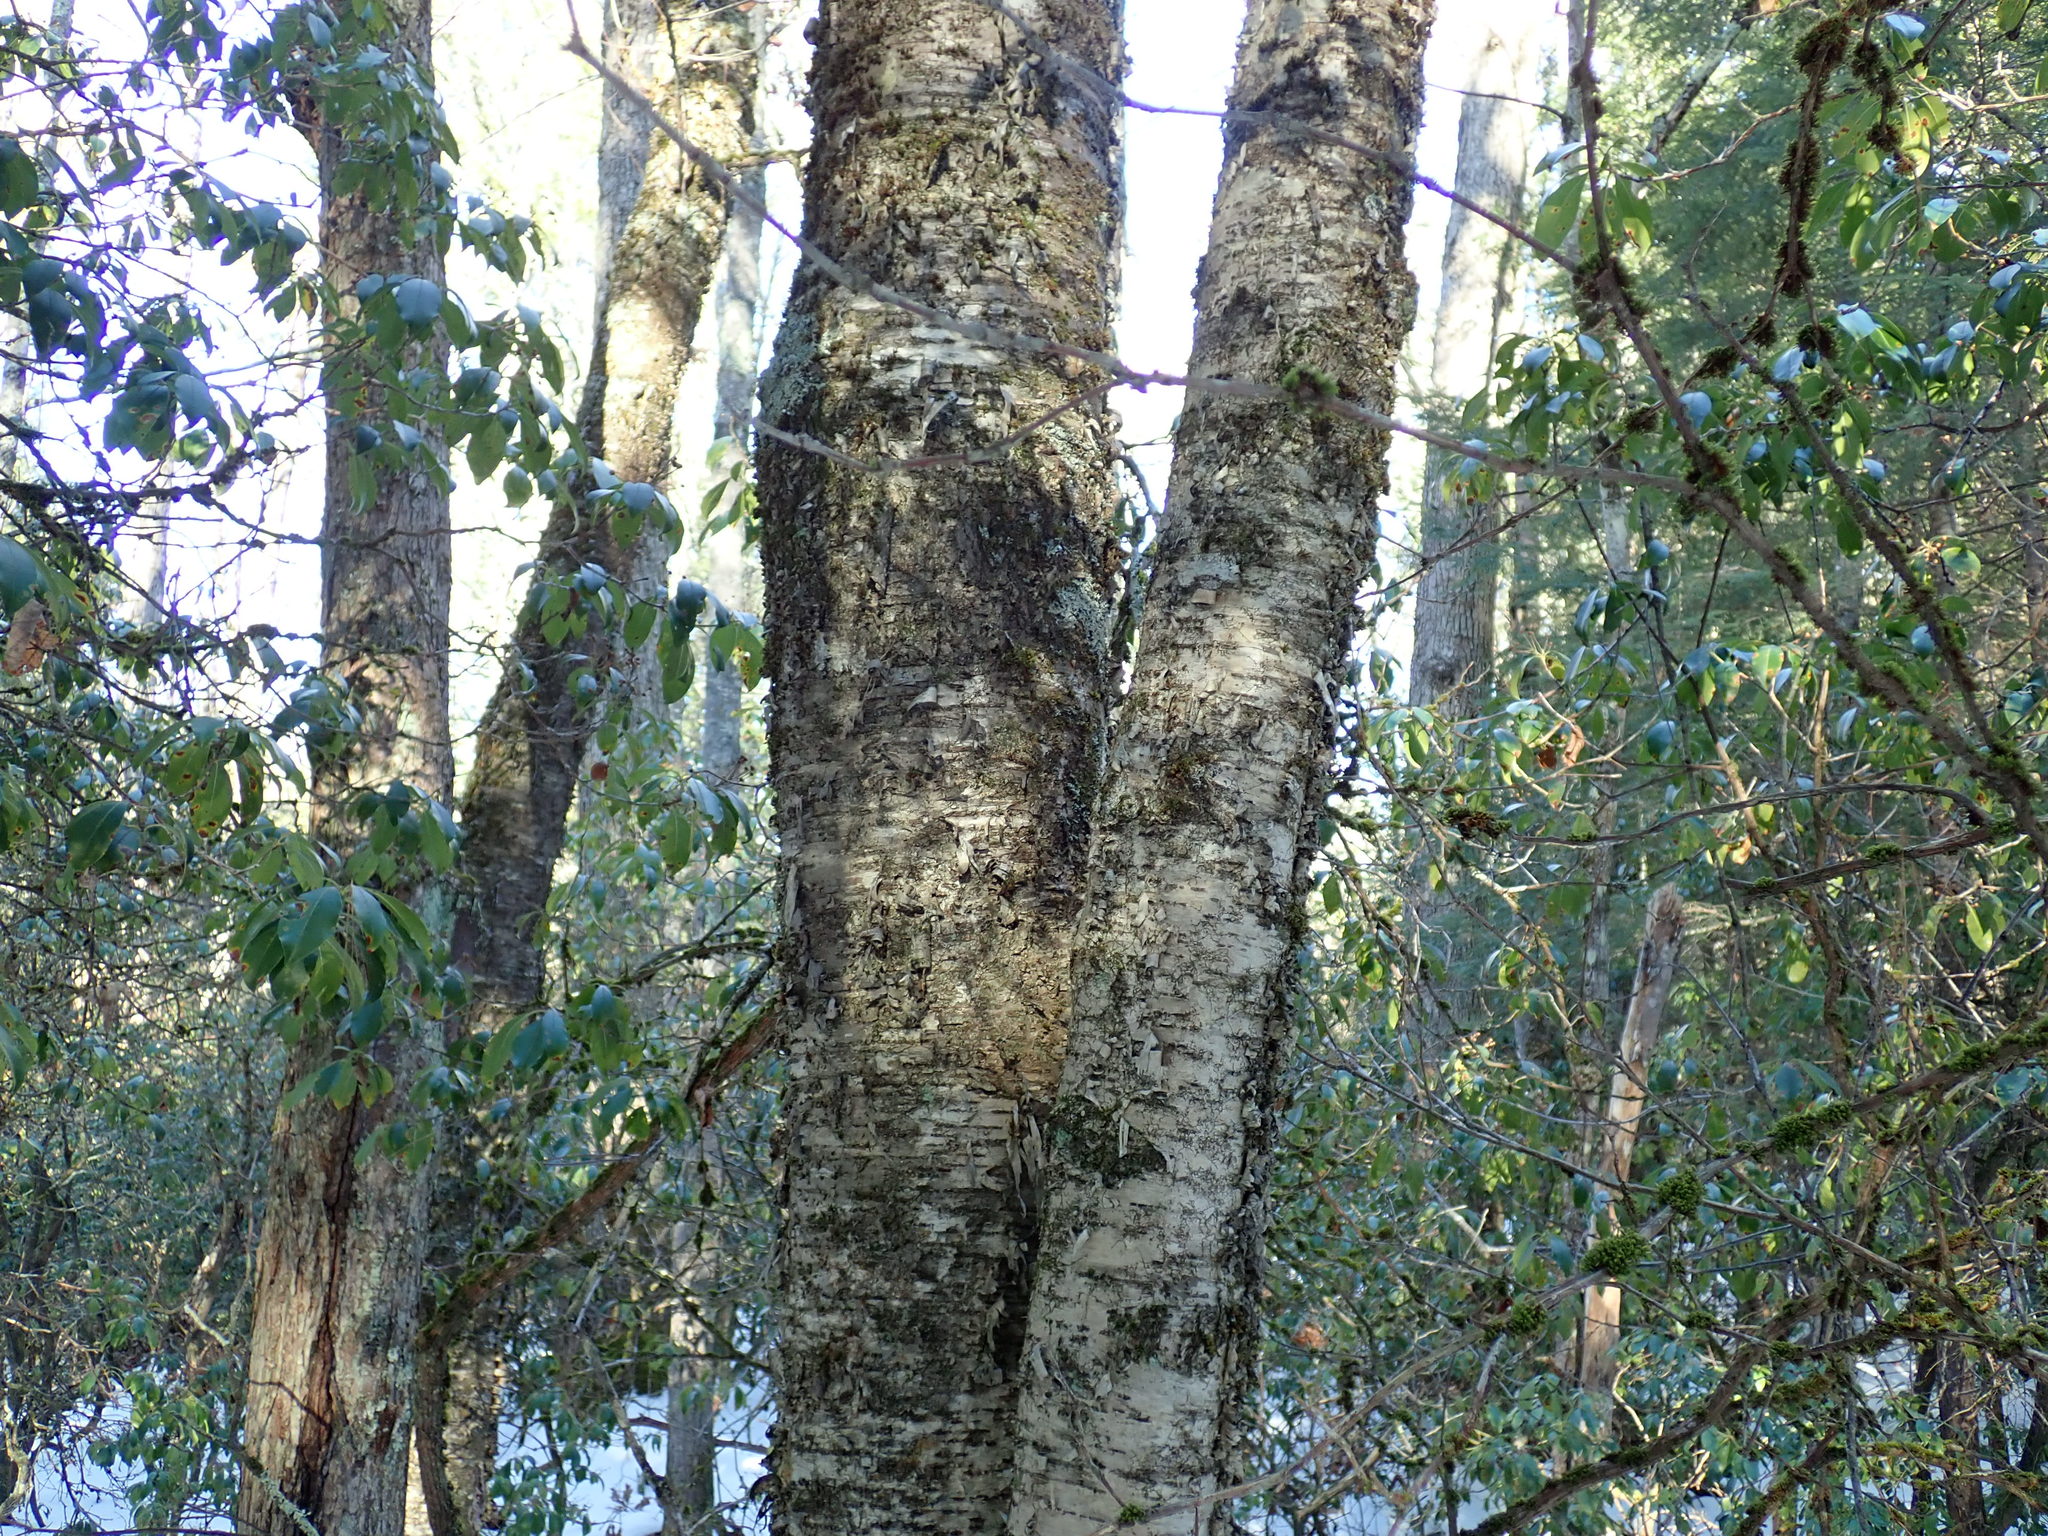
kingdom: Plantae
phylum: Tracheophyta
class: Magnoliopsida
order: Fagales
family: Betulaceae
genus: Betula
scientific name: Betula alleghaniensis
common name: Yellow birch
